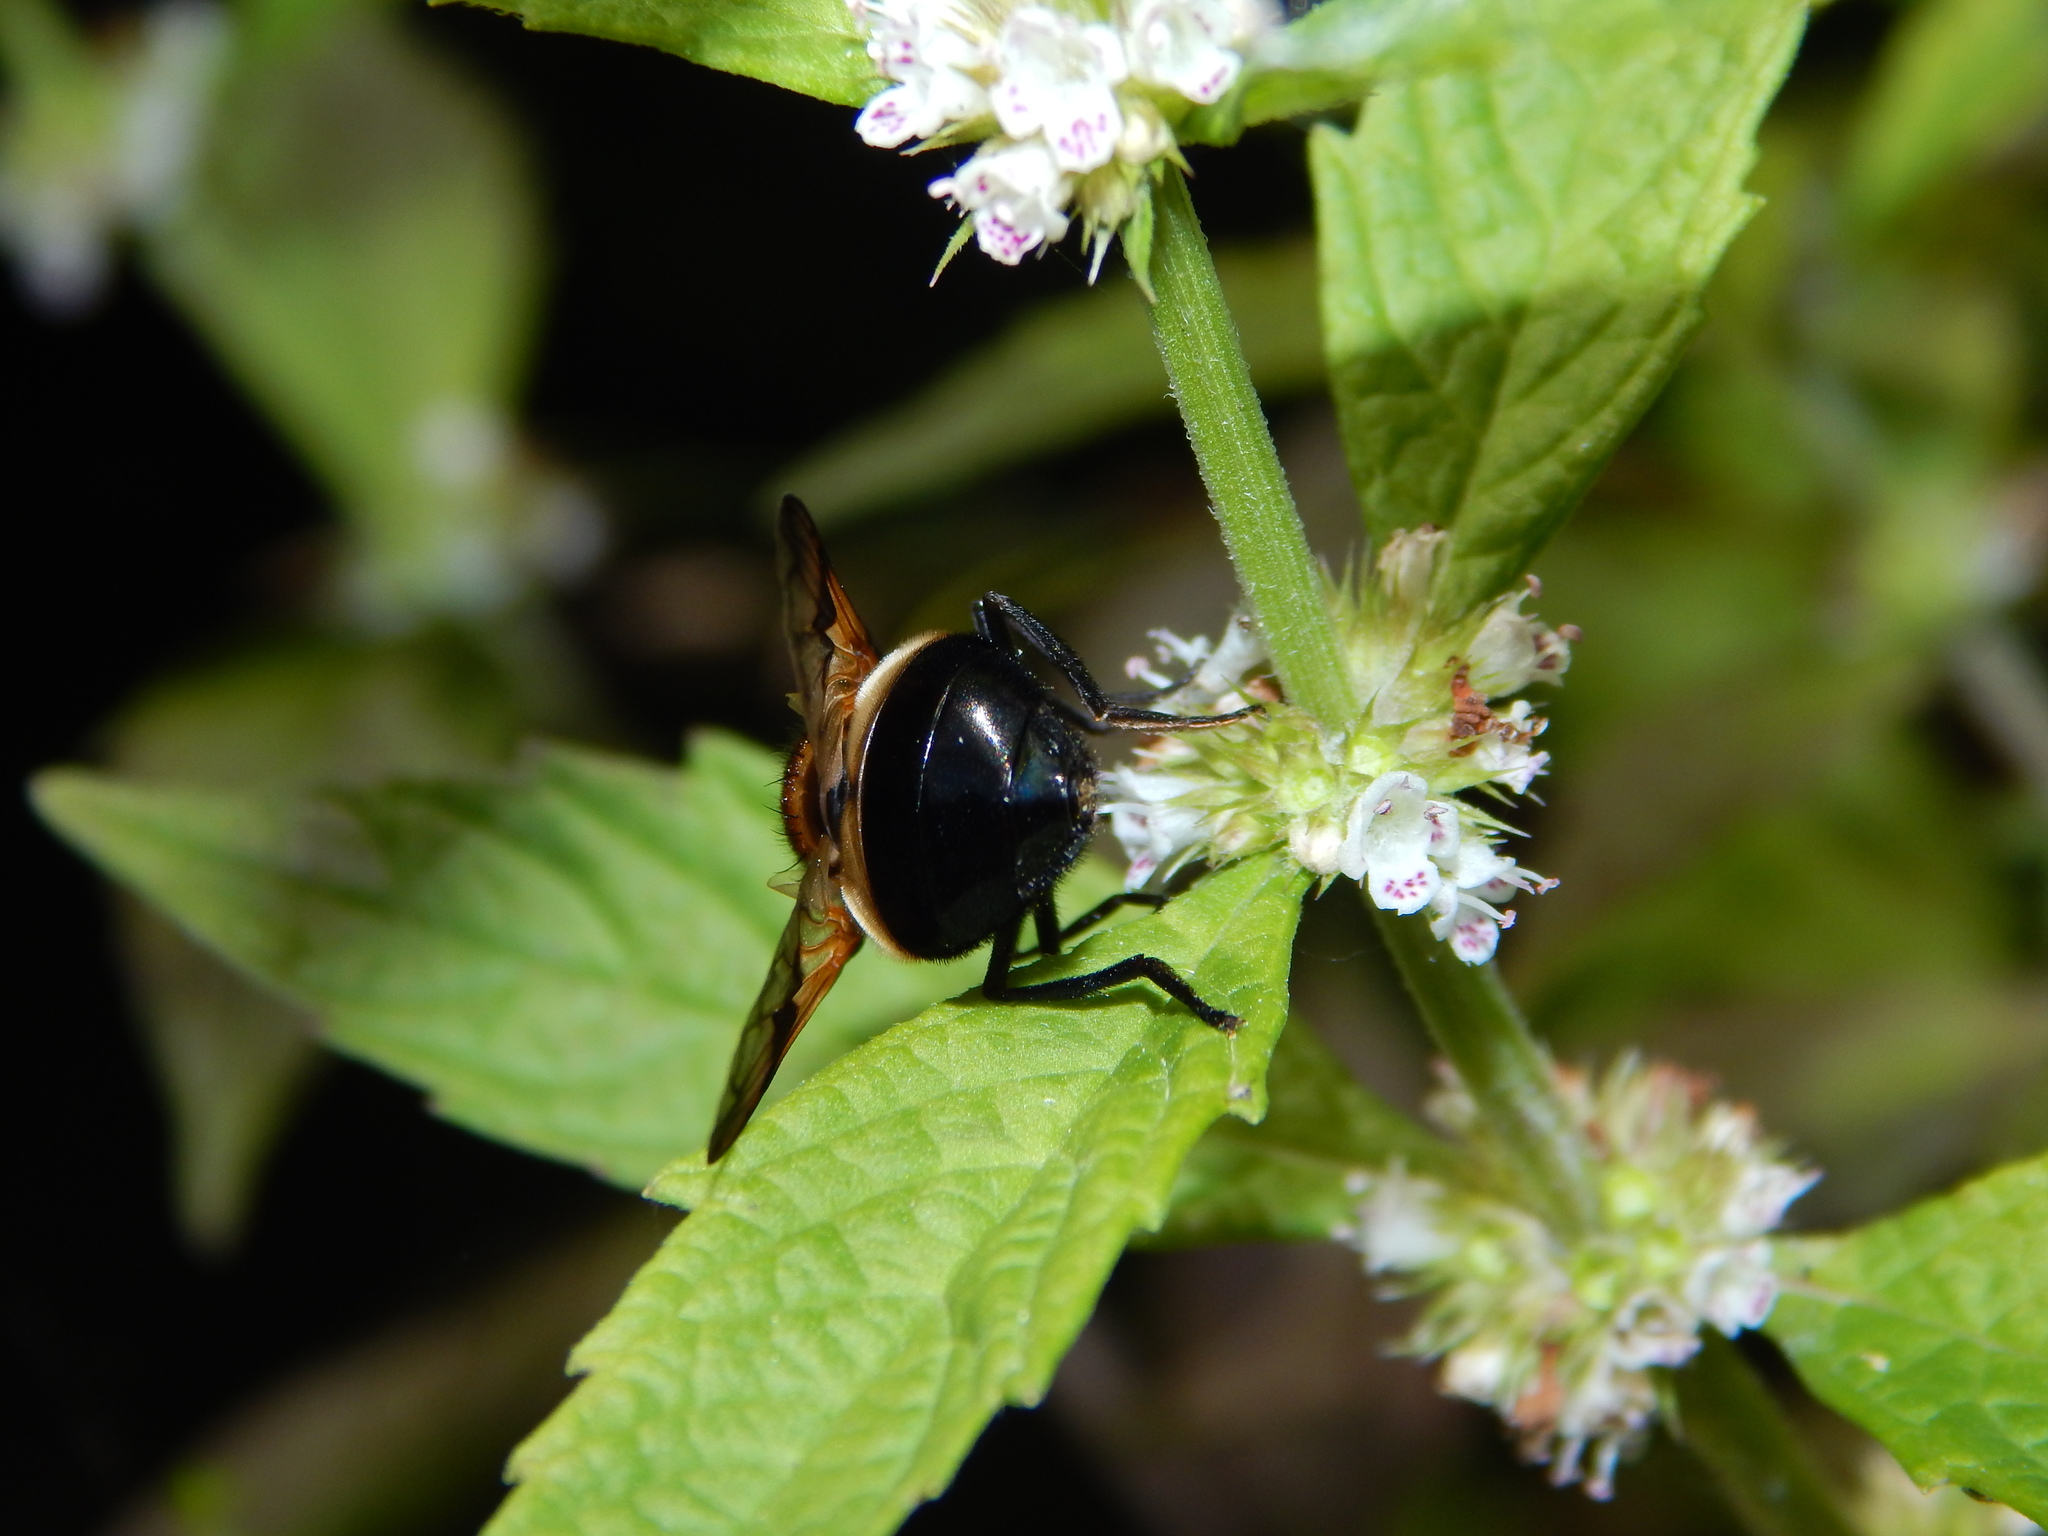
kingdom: Animalia
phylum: Arthropoda
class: Insecta
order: Diptera
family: Syrphidae
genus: Volucella
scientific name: Volucella pellucens
